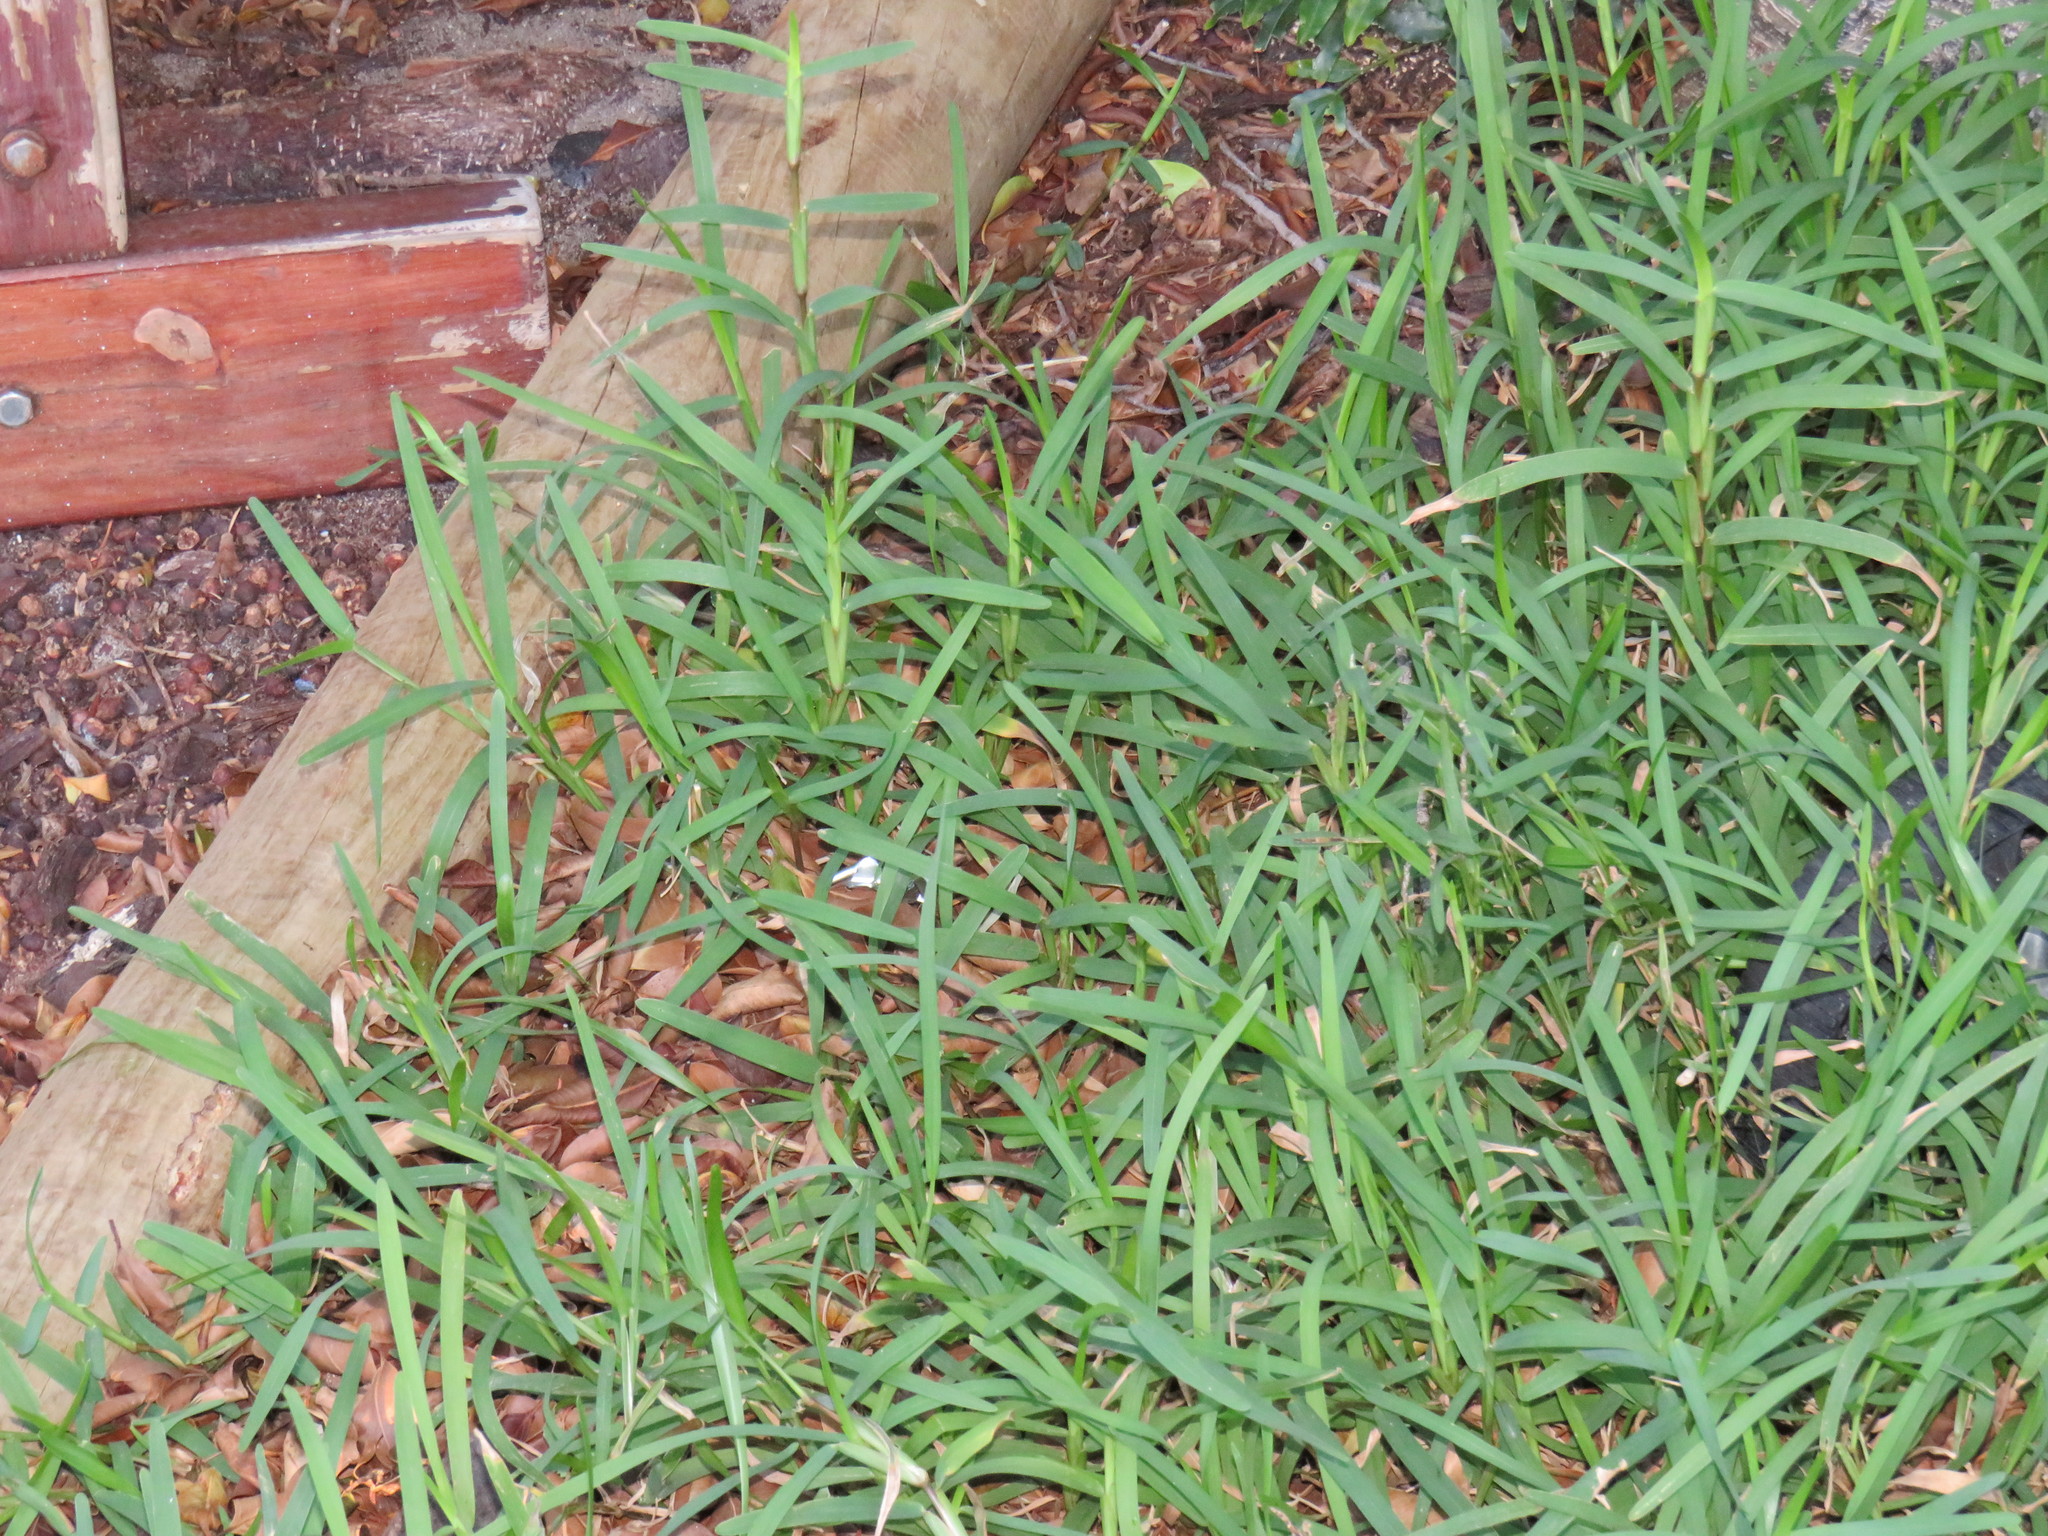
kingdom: Plantae
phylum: Tracheophyta
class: Liliopsida
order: Poales
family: Poaceae
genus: Stenotaphrum
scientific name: Stenotaphrum secundatum
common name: St. augustine grass
